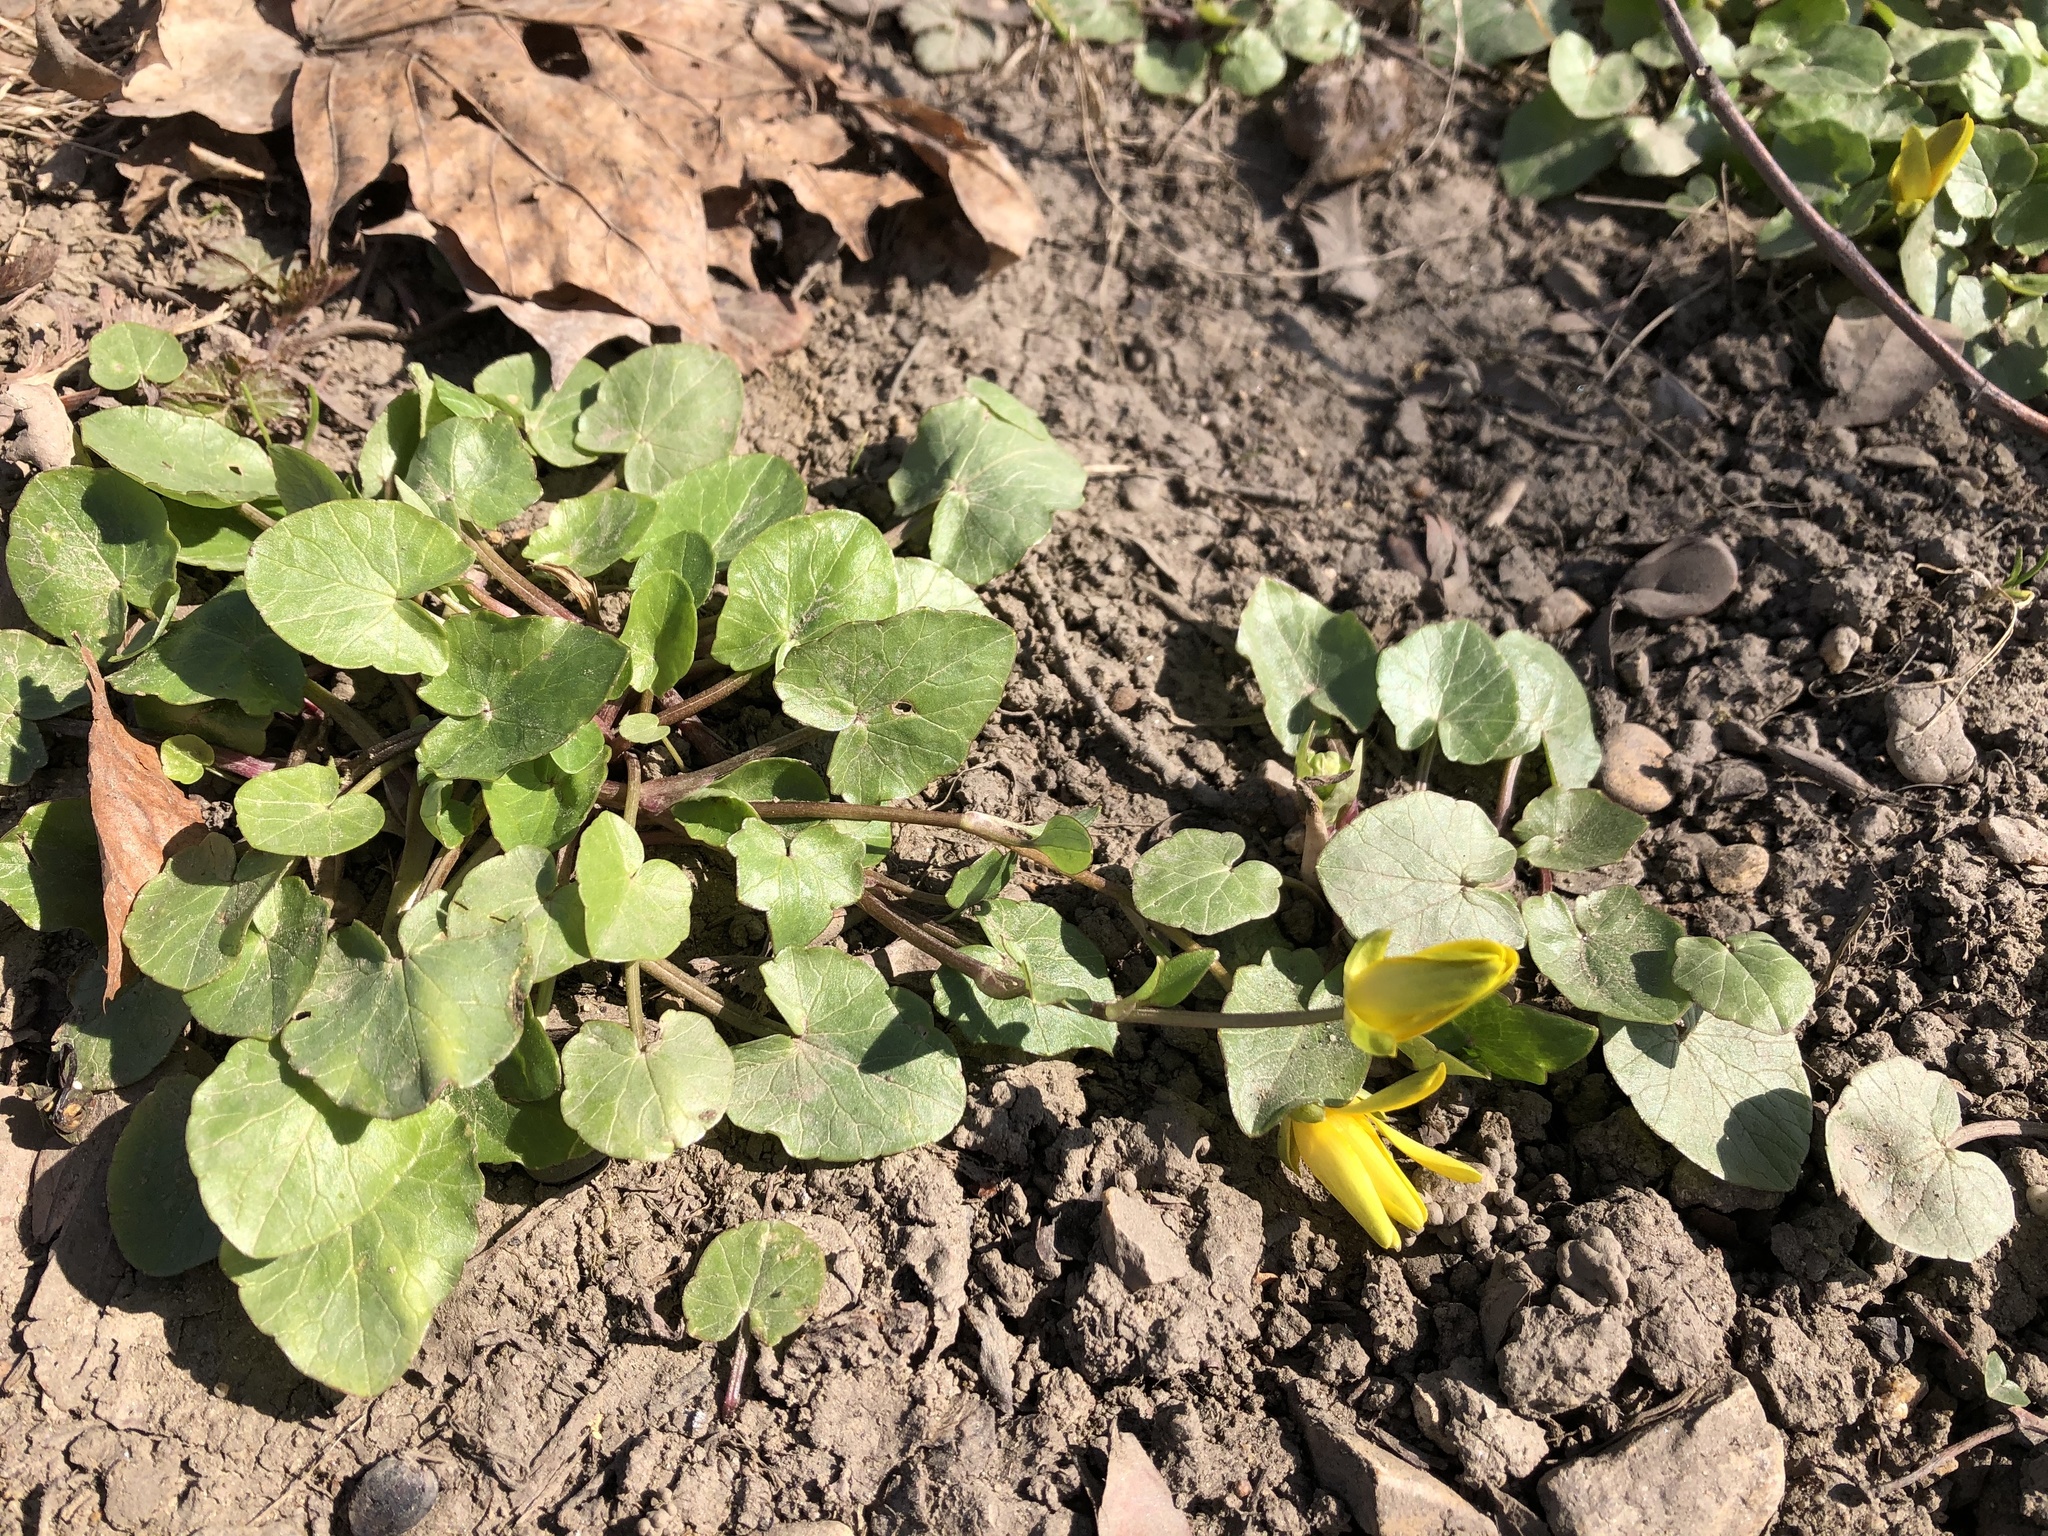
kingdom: Plantae
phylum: Tracheophyta
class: Magnoliopsida
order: Ranunculales
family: Ranunculaceae
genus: Ficaria
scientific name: Ficaria verna
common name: Lesser celandine
